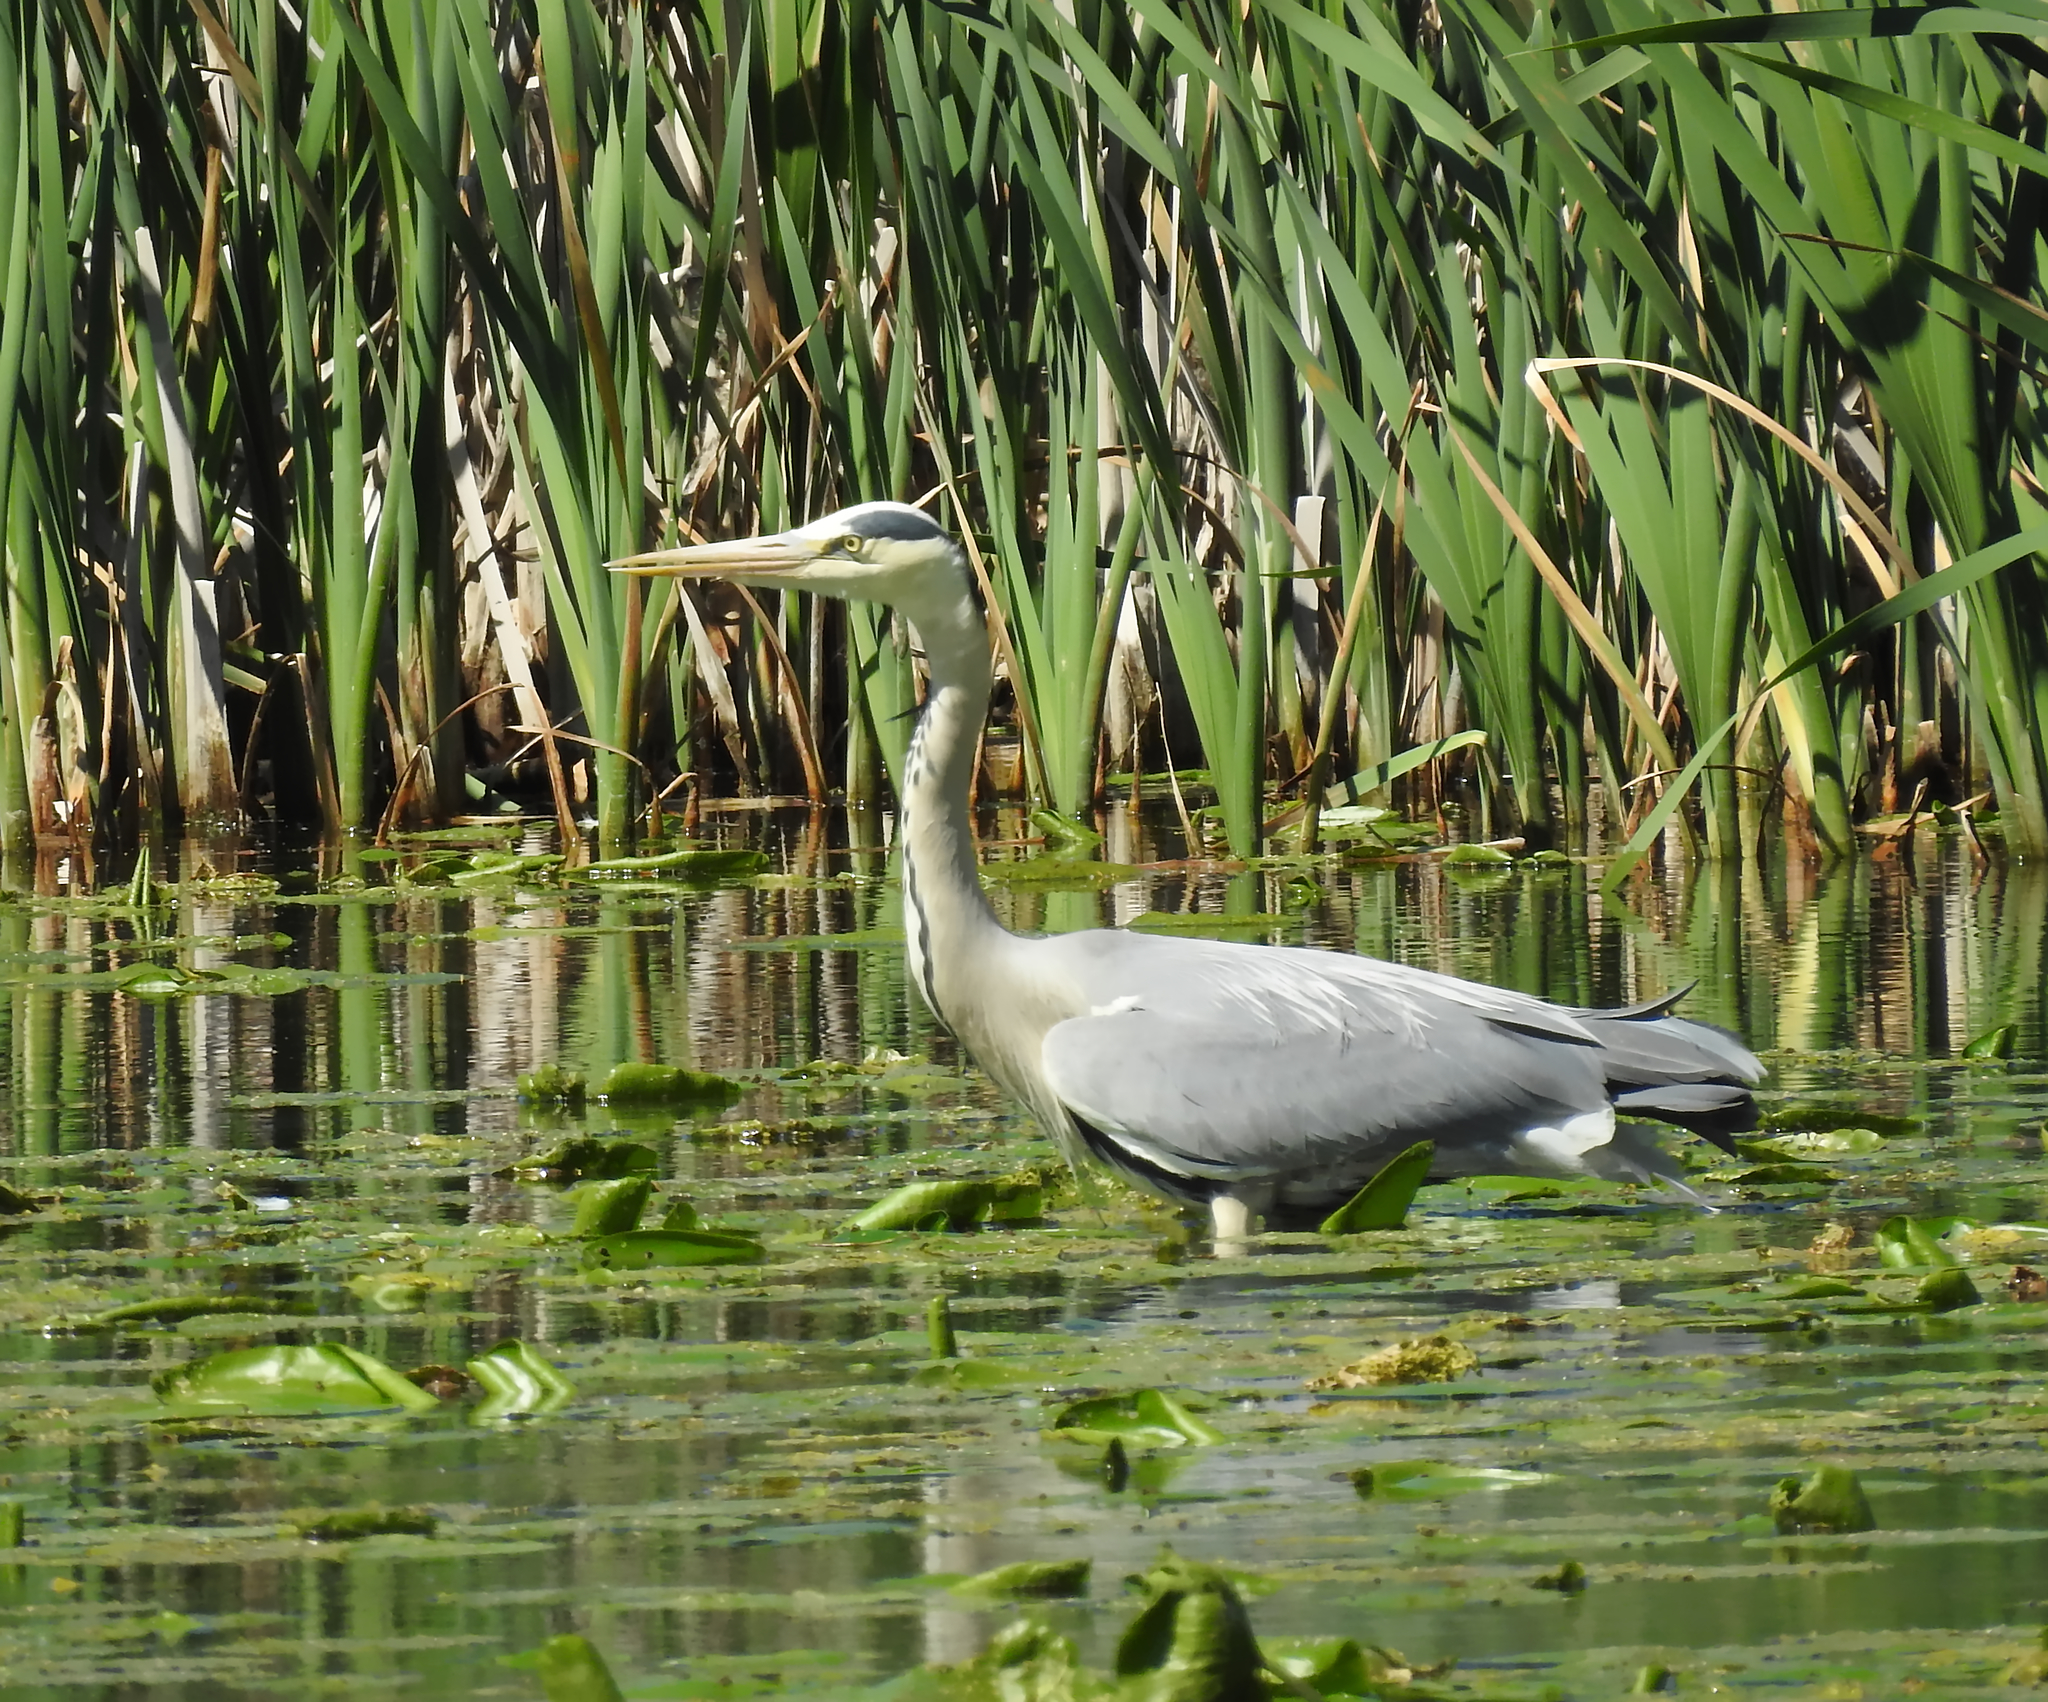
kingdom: Animalia
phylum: Chordata
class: Aves
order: Pelecaniformes
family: Ardeidae
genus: Ardea
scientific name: Ardea cinerea
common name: Grey heron
